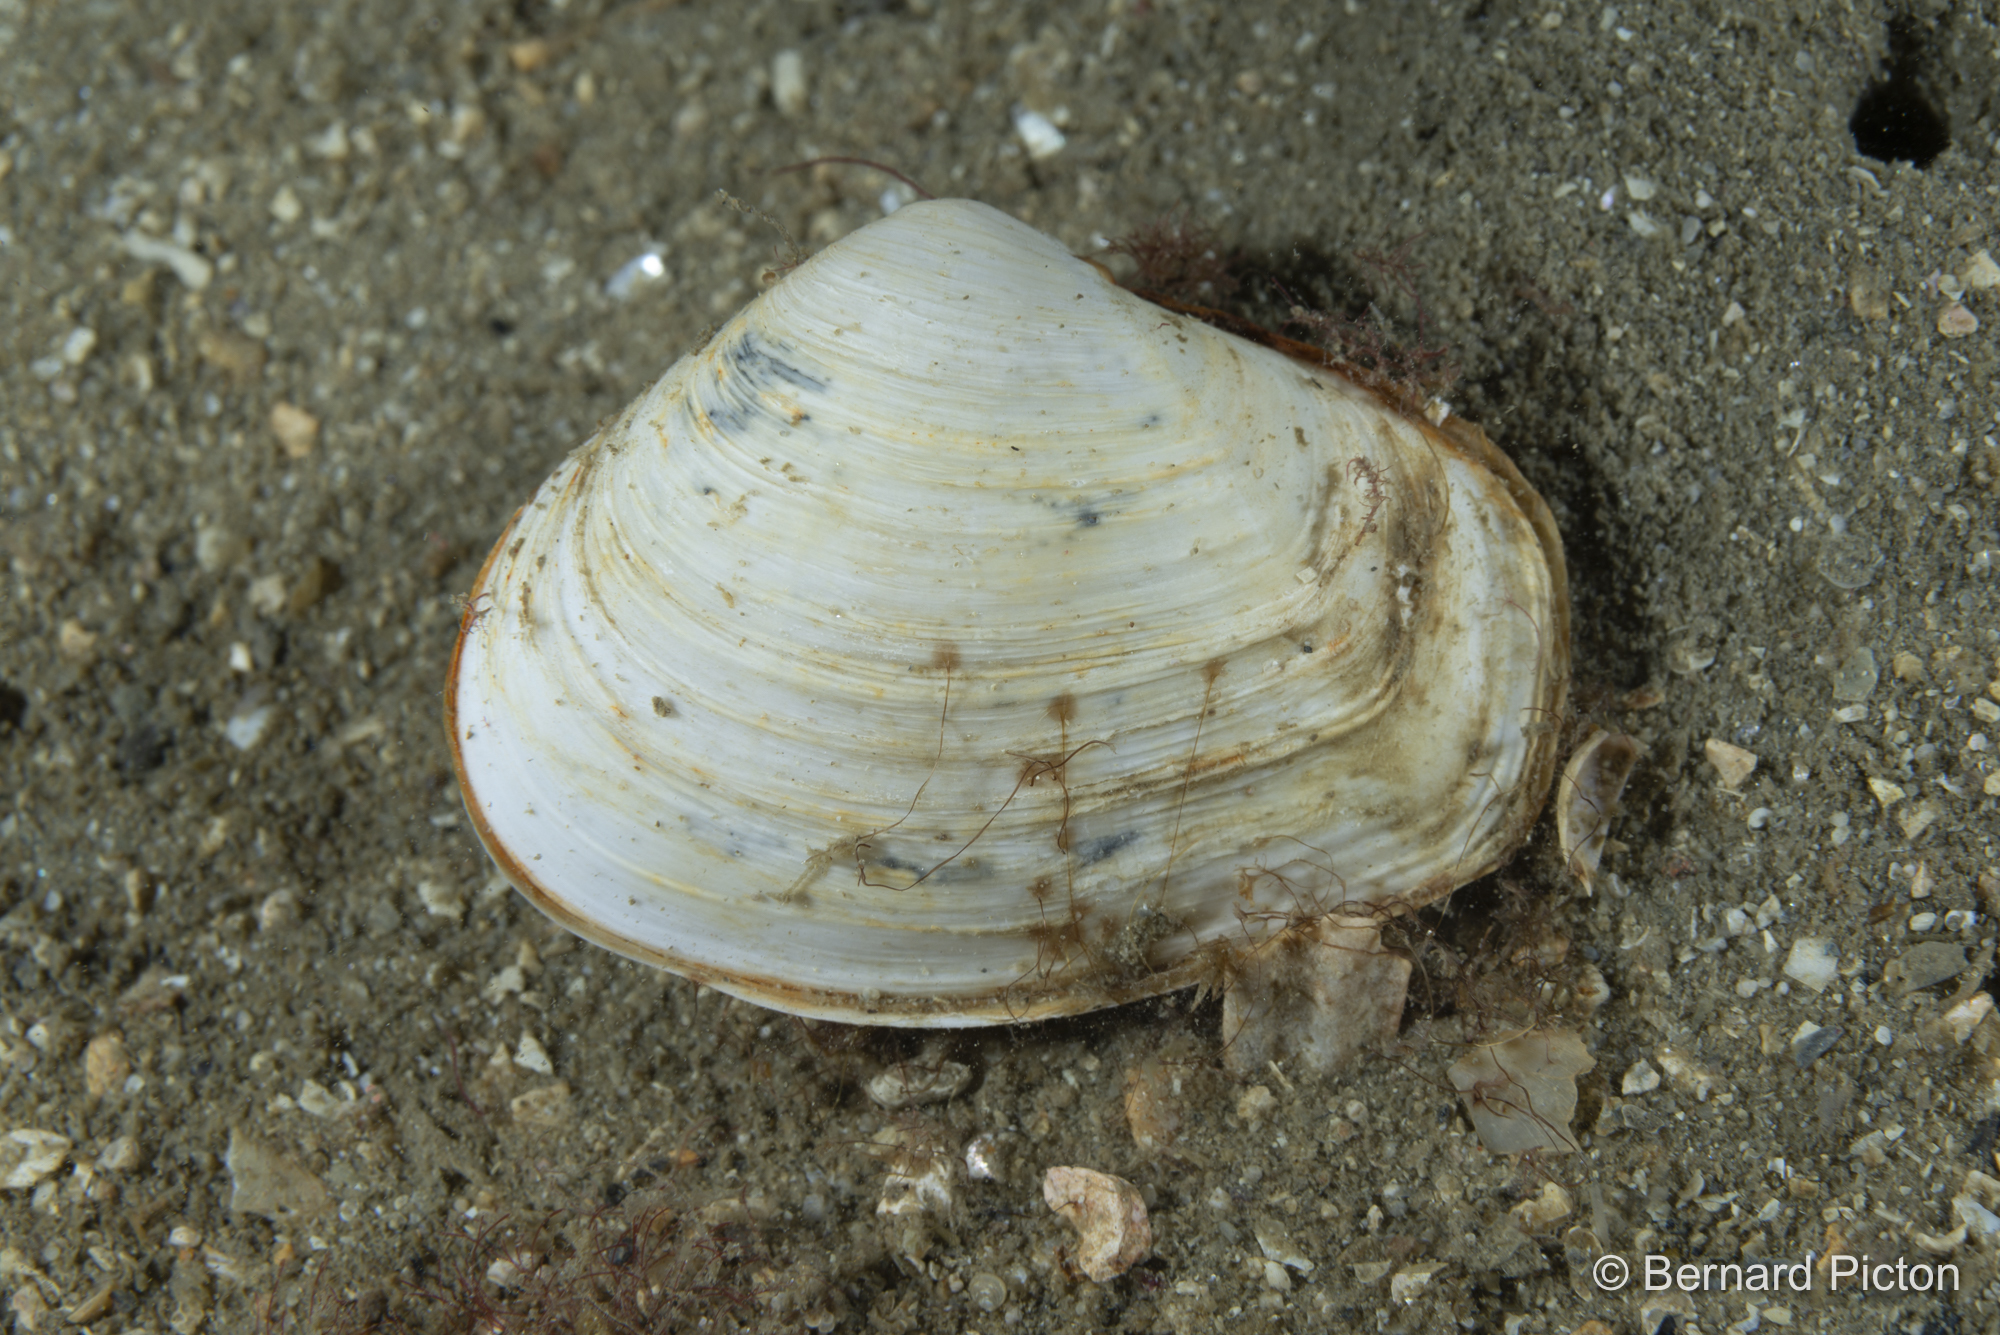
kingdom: Animalia
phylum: Mollusca
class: Bivalvia
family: Thraciidae
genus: Thracia
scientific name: Thracia convexa
